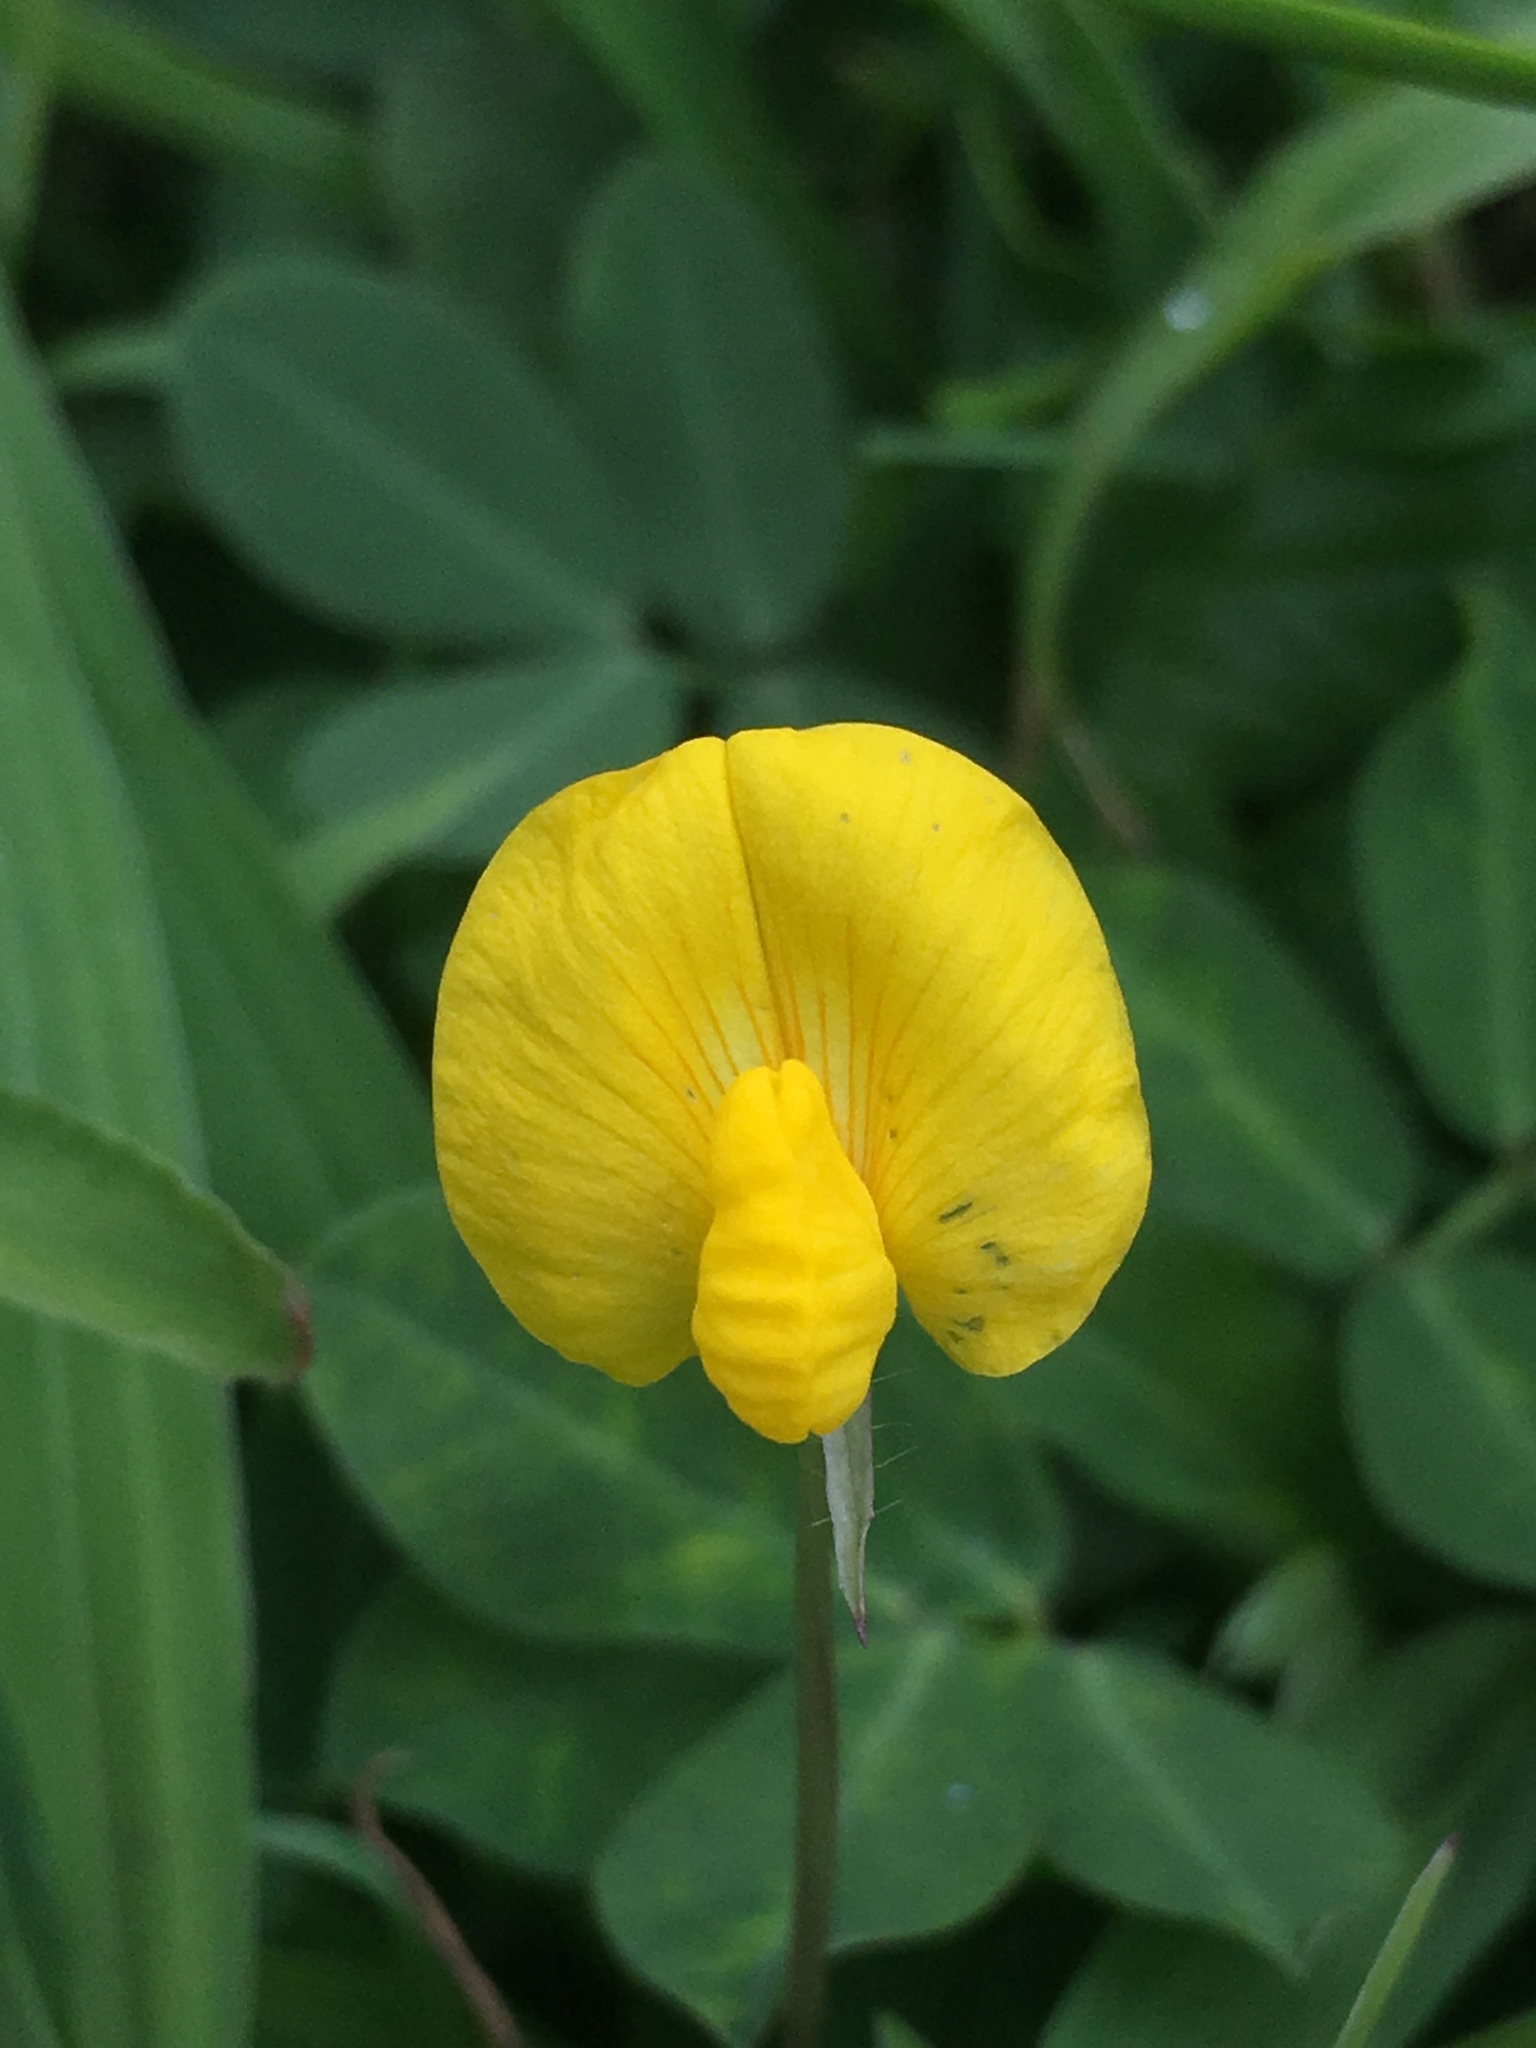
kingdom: Plantae
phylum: Tracheophyta
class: Magnoliopsida
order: Fabales
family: Fabaceae
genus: Arachis
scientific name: Arachis pintoi
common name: Pinto peanut
